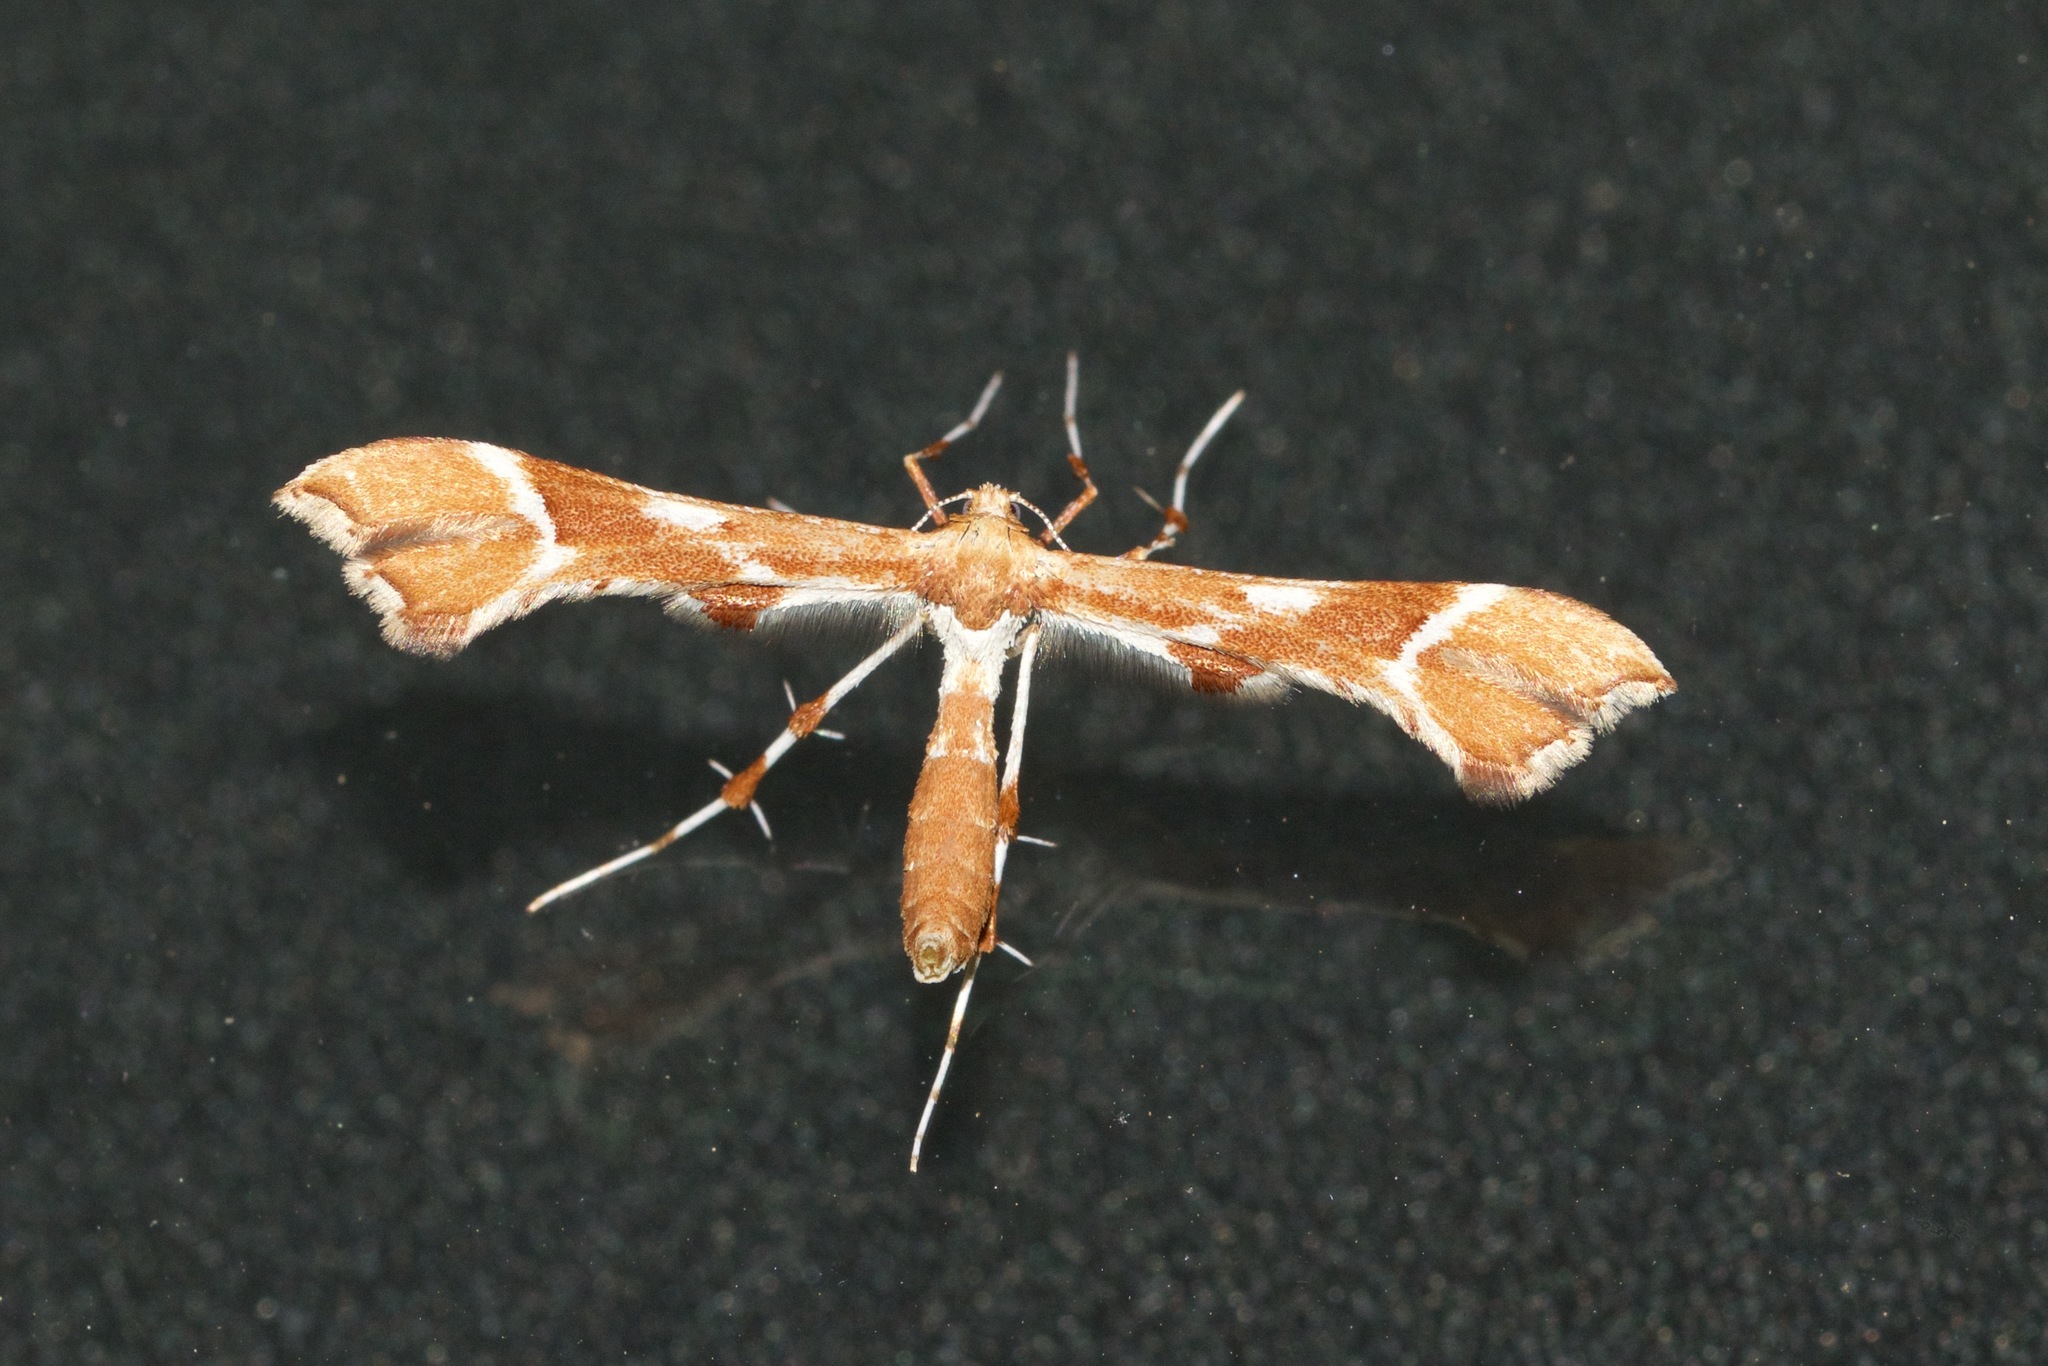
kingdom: Animalia
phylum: Arthropoda
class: Insecta
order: Lepidoptera
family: Pterophoridae
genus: Cnaemidophorus
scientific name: Cnaemidophorus rhododactyla
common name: Rose plume
